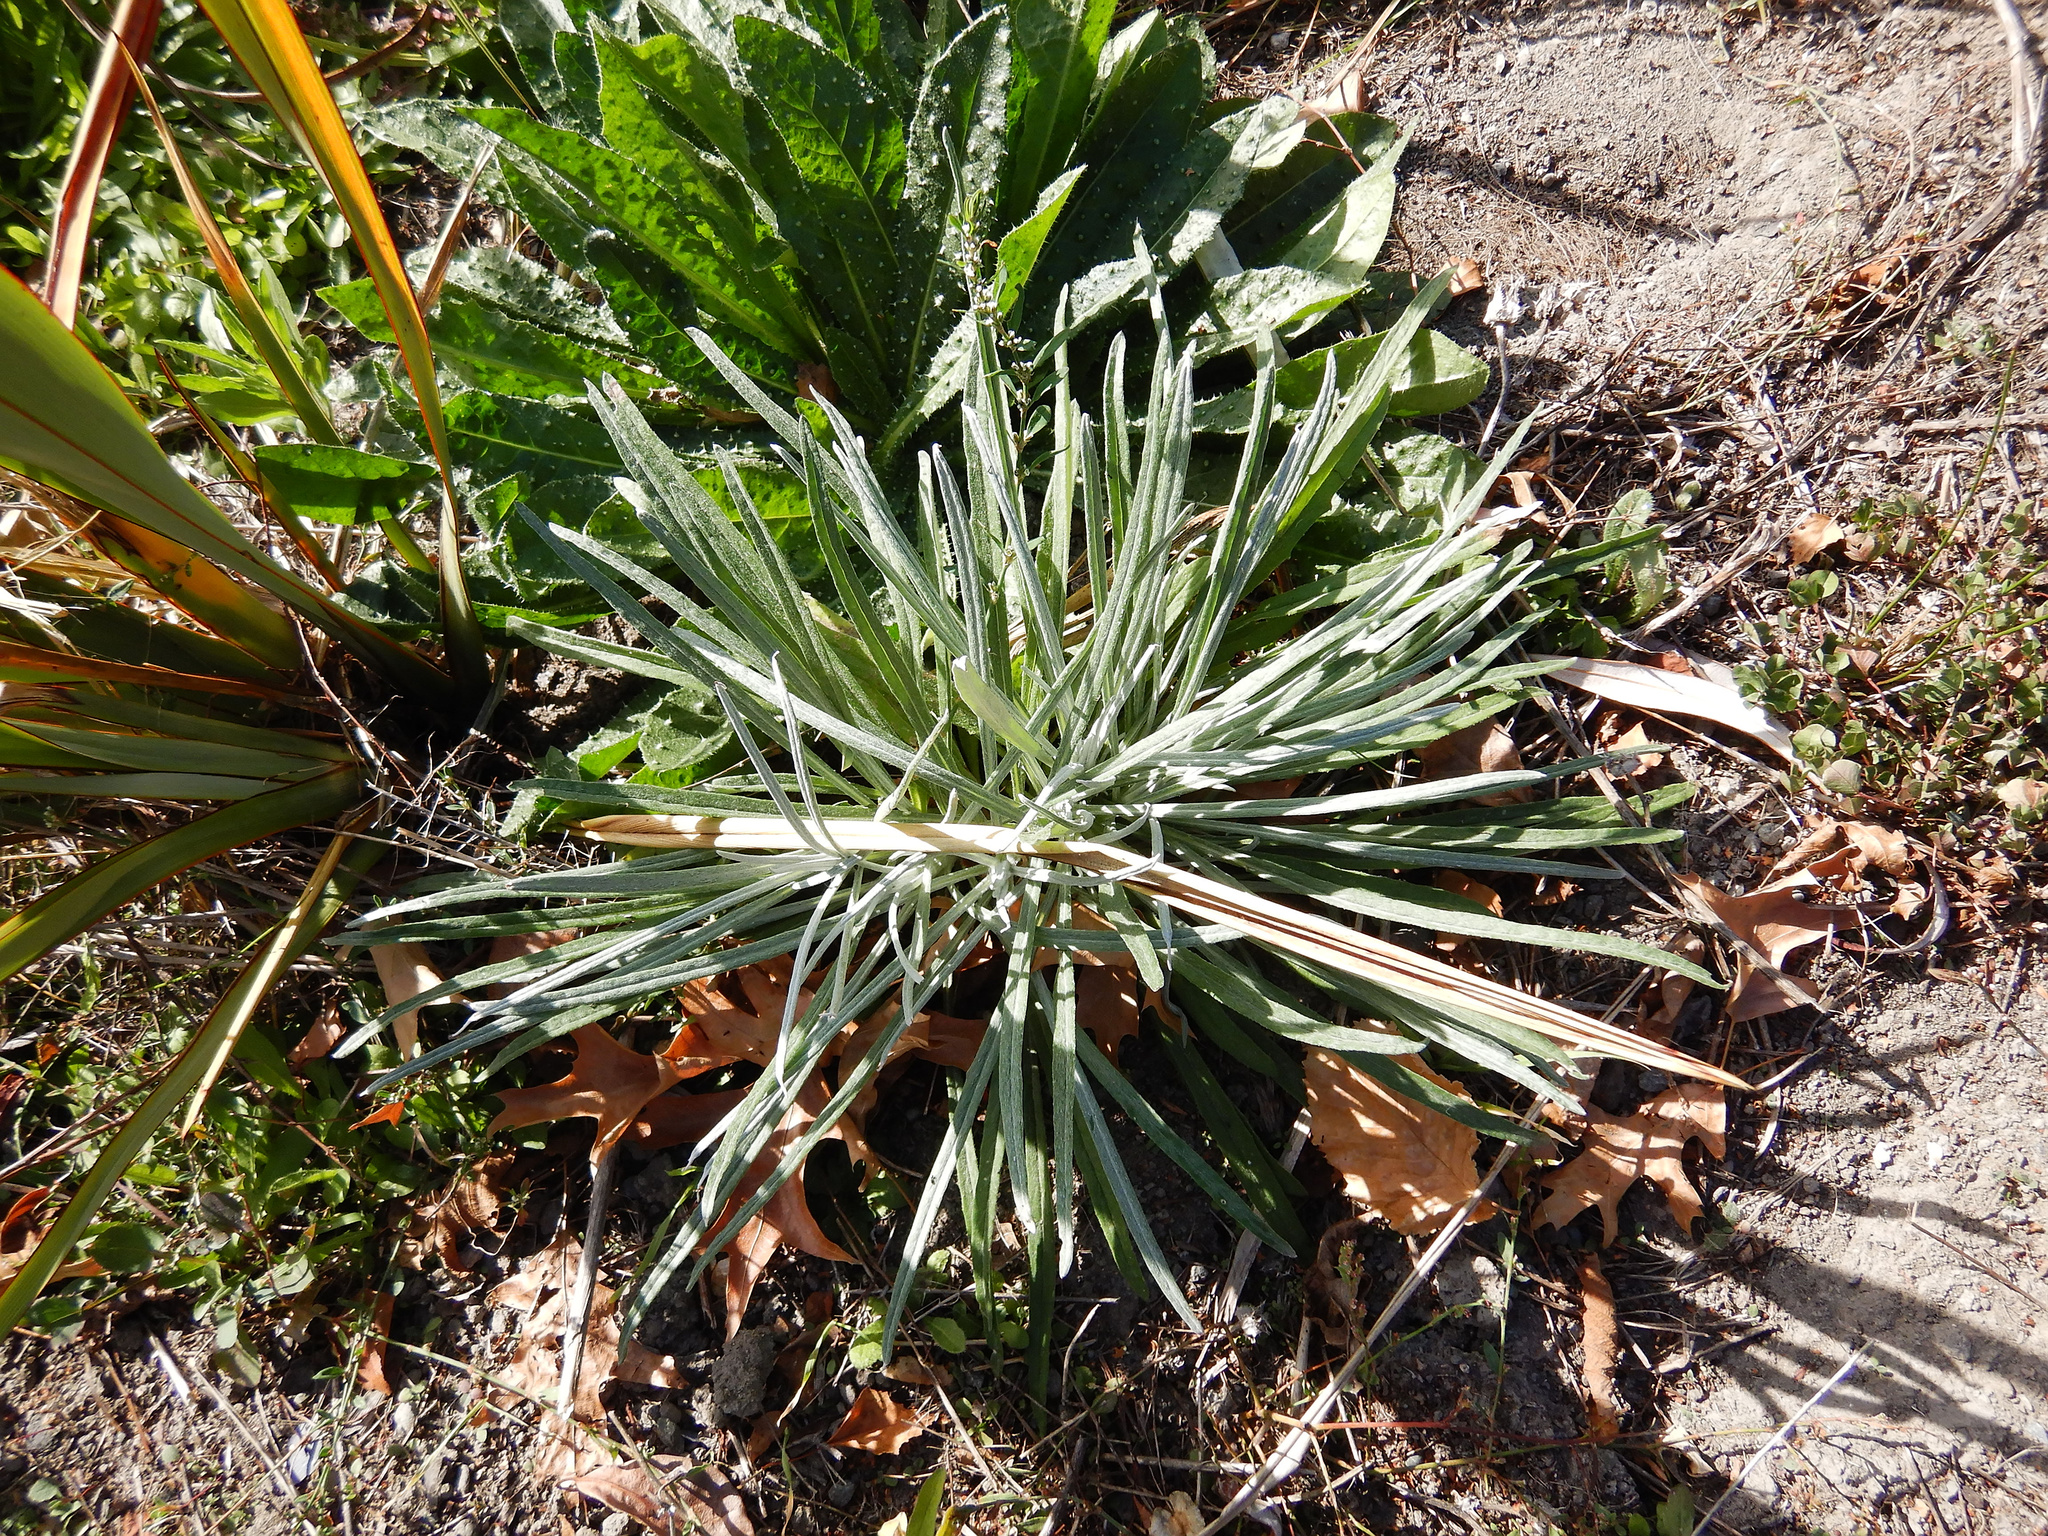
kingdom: Plantae
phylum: Tracheophyta
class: Magnoliopsida
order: Asterales
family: Asteraceae
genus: Senecio
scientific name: Senecio quadridentatus
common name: Cotton fireweed
